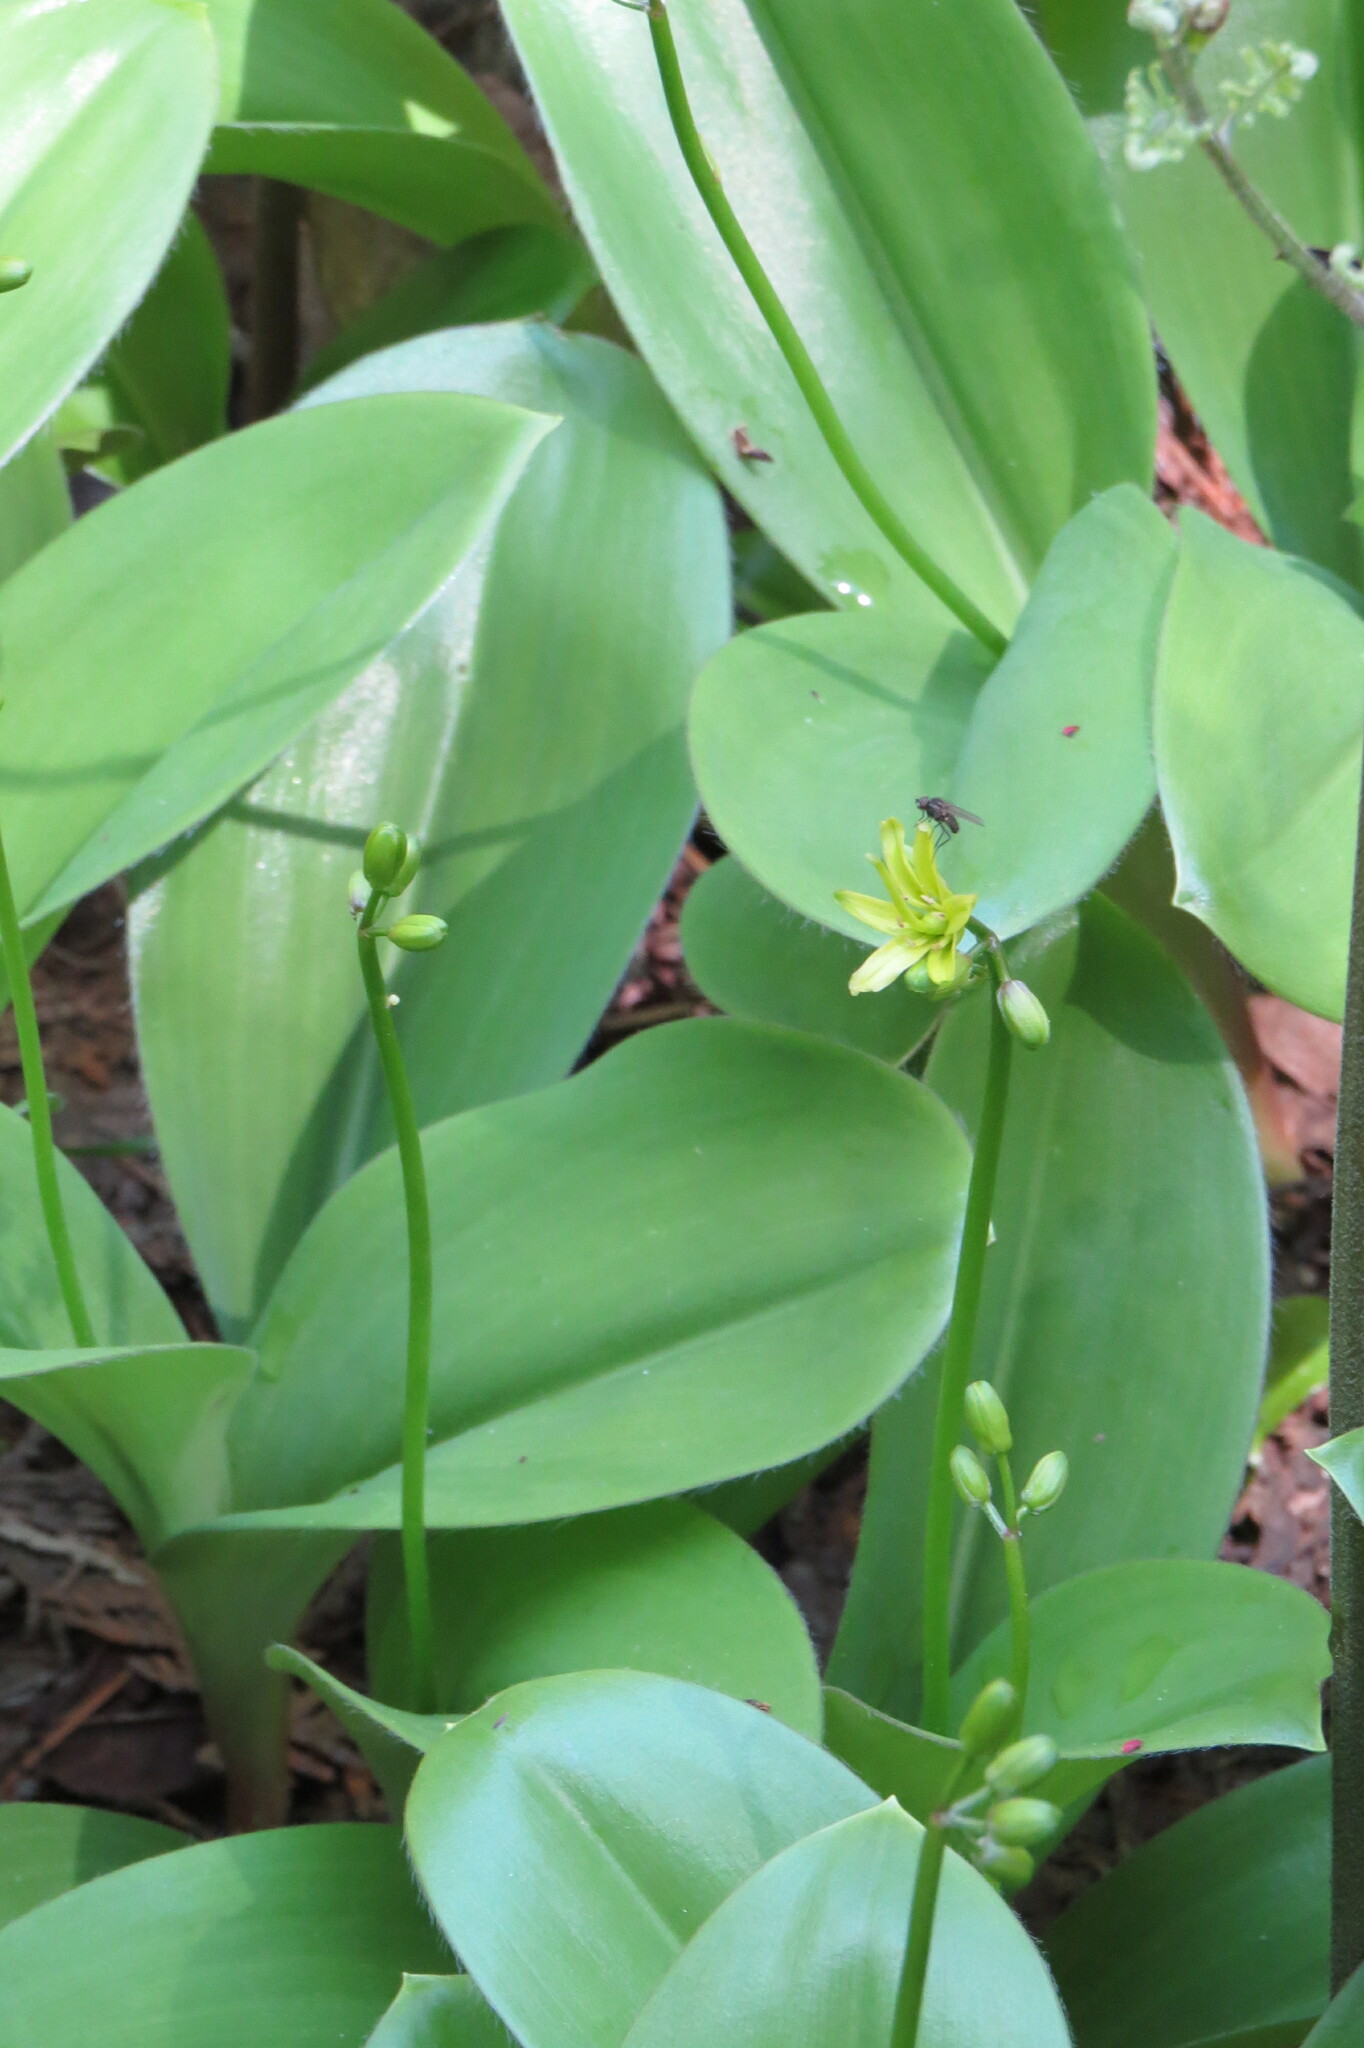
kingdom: Plantae
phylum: Tracheophyta
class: Liliopsida
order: Liliales
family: Liliaceae
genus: Clintonia
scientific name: Clintonia borealis
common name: Yellow clintonia
